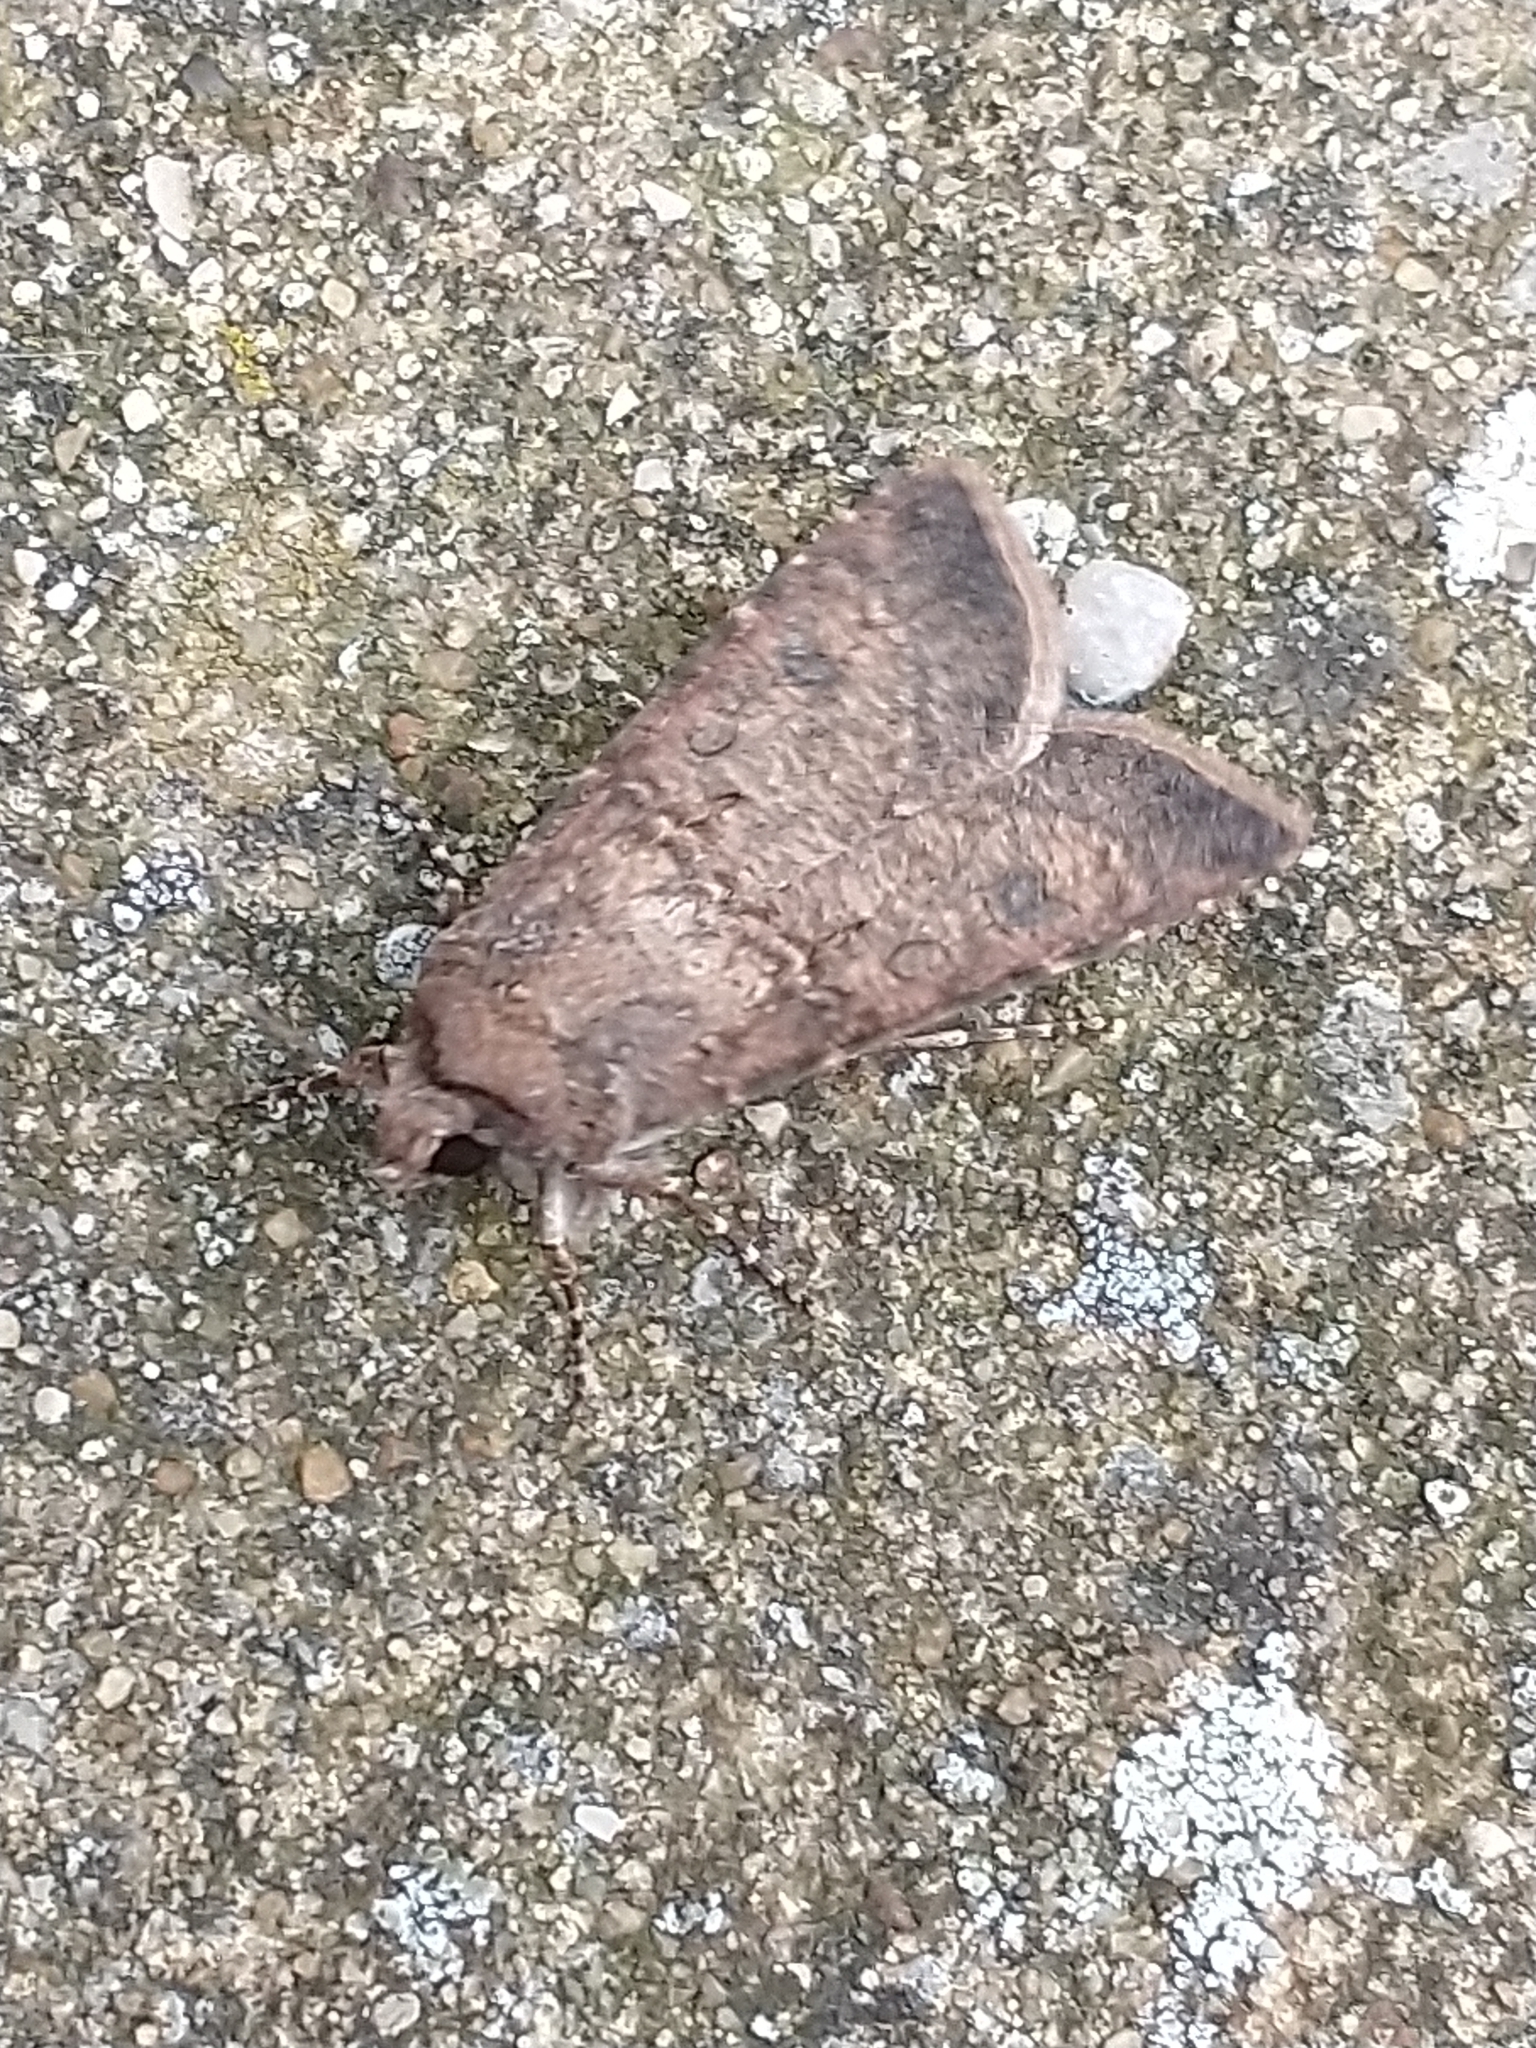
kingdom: Animalia
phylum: Arthropoda
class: Insecta
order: Lepidoptera
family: Noctuidae
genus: Agrotis
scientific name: Agrotis segetum
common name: Turnip moth
